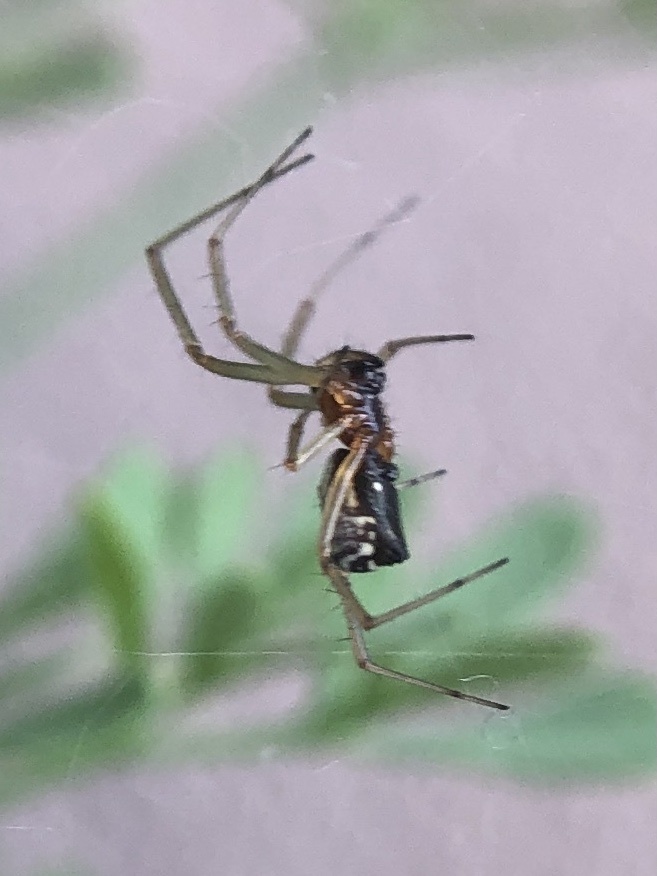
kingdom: Animalia
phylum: Arthropoda
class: Arachnida
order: Araneae
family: Linyphiidae
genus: Frontinellina
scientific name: Frontinellina frutetorum
